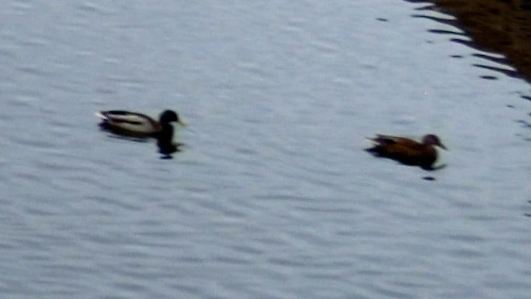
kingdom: Animalia
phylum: Chordata
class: Aves
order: Anseriformes
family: Anatidae
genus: Anas
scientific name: Anas platyrhynchos
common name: Mallard
